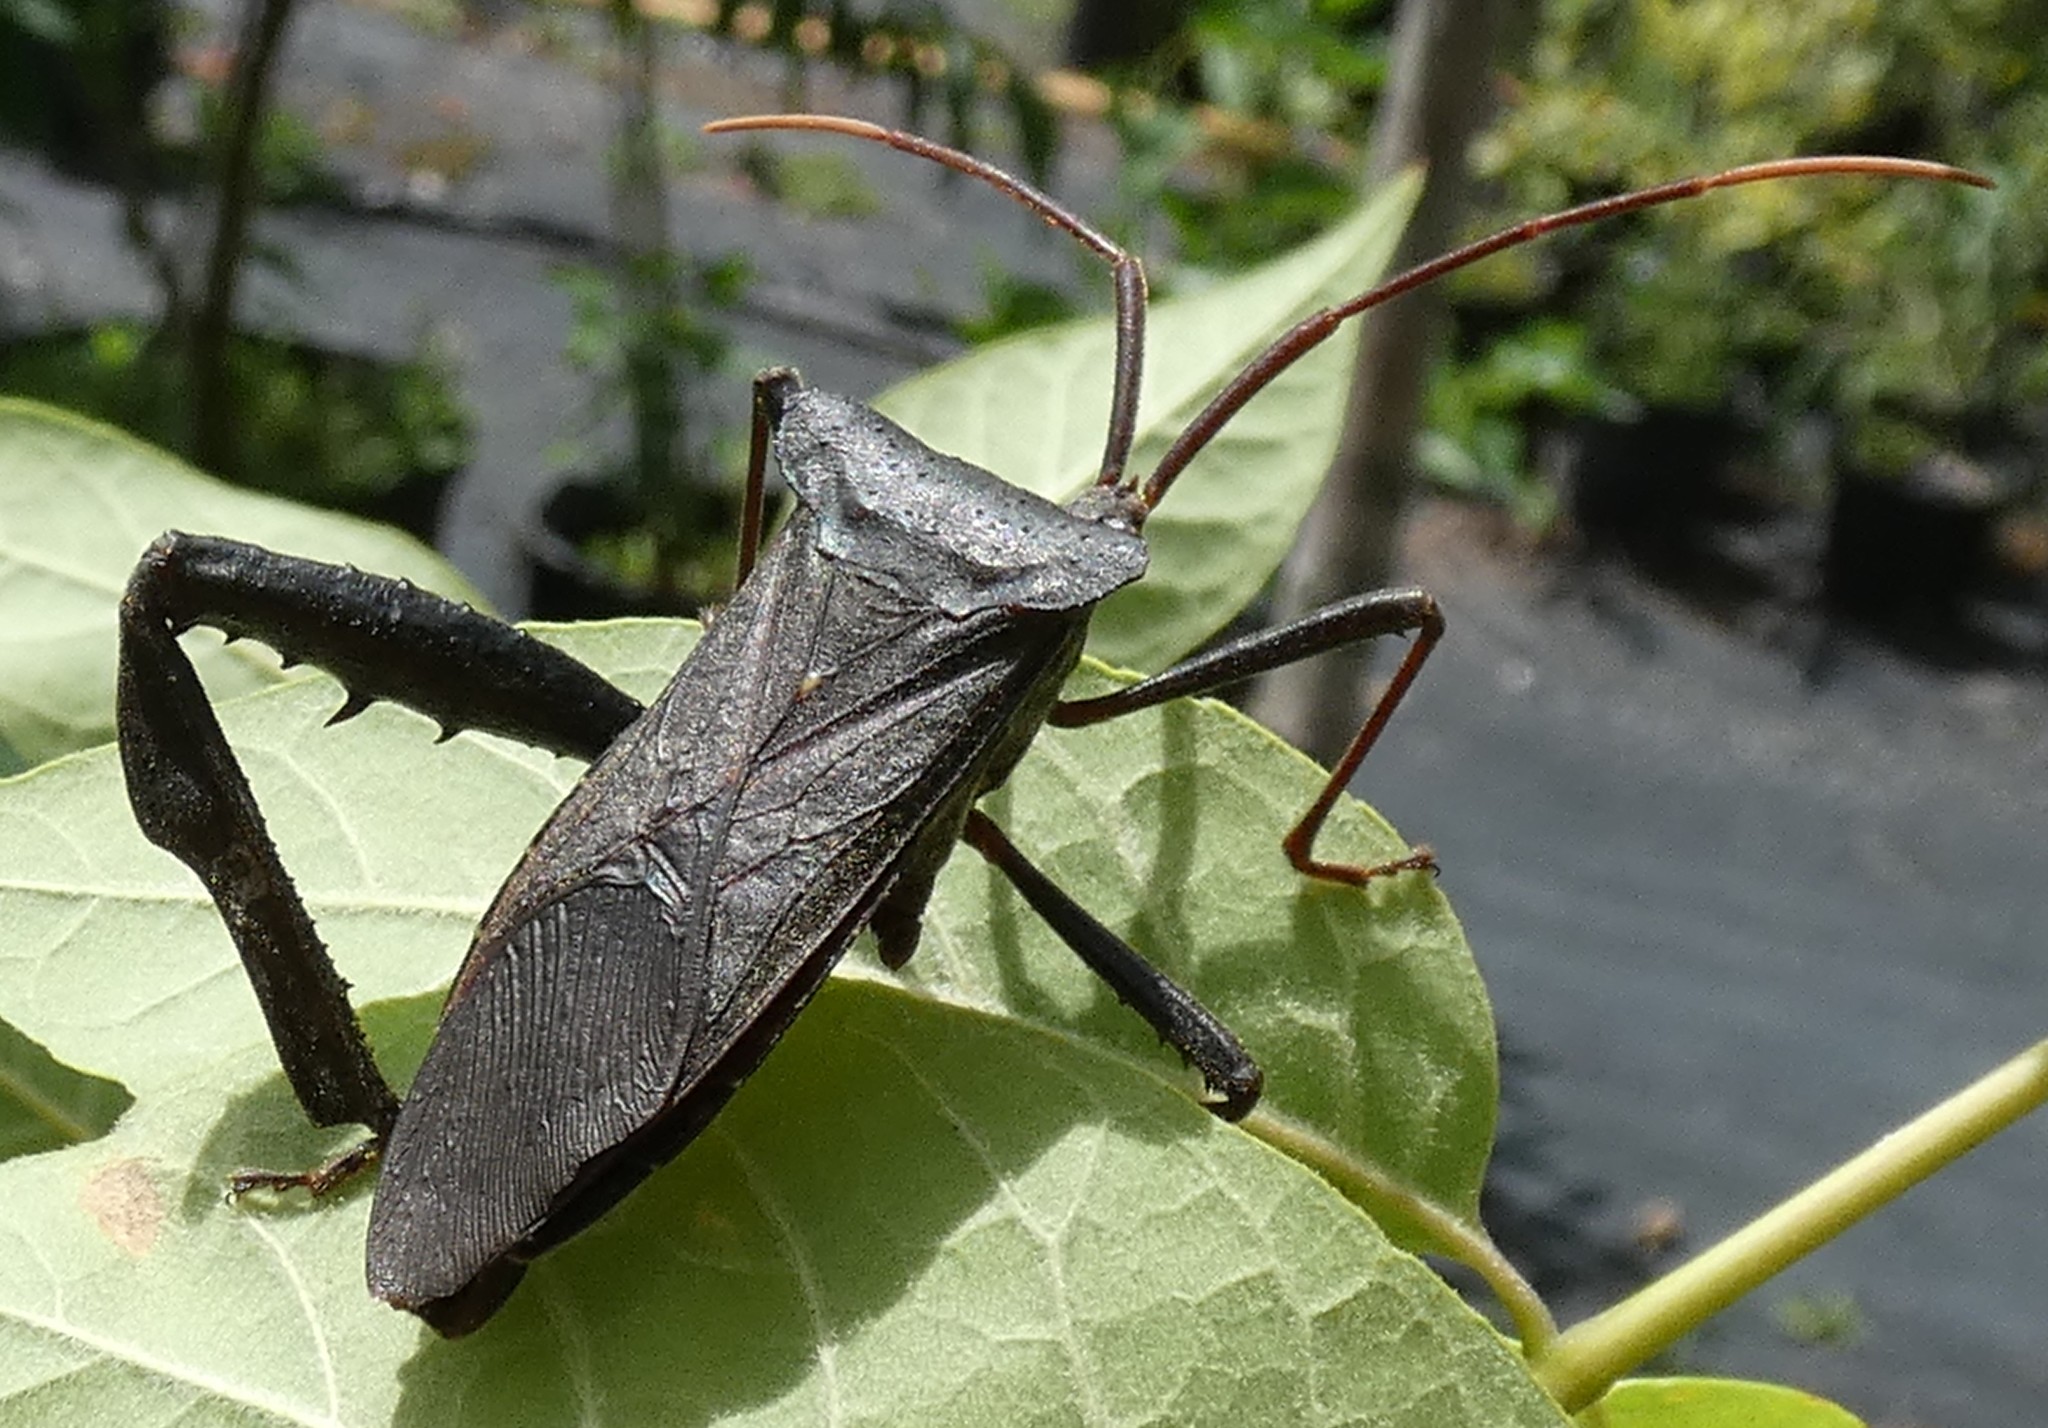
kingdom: Animalia
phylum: Arthropoda
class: Insecta
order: Hemiptera
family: Coreidae
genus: Acanthocephala
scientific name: Acanthocephala declivis
